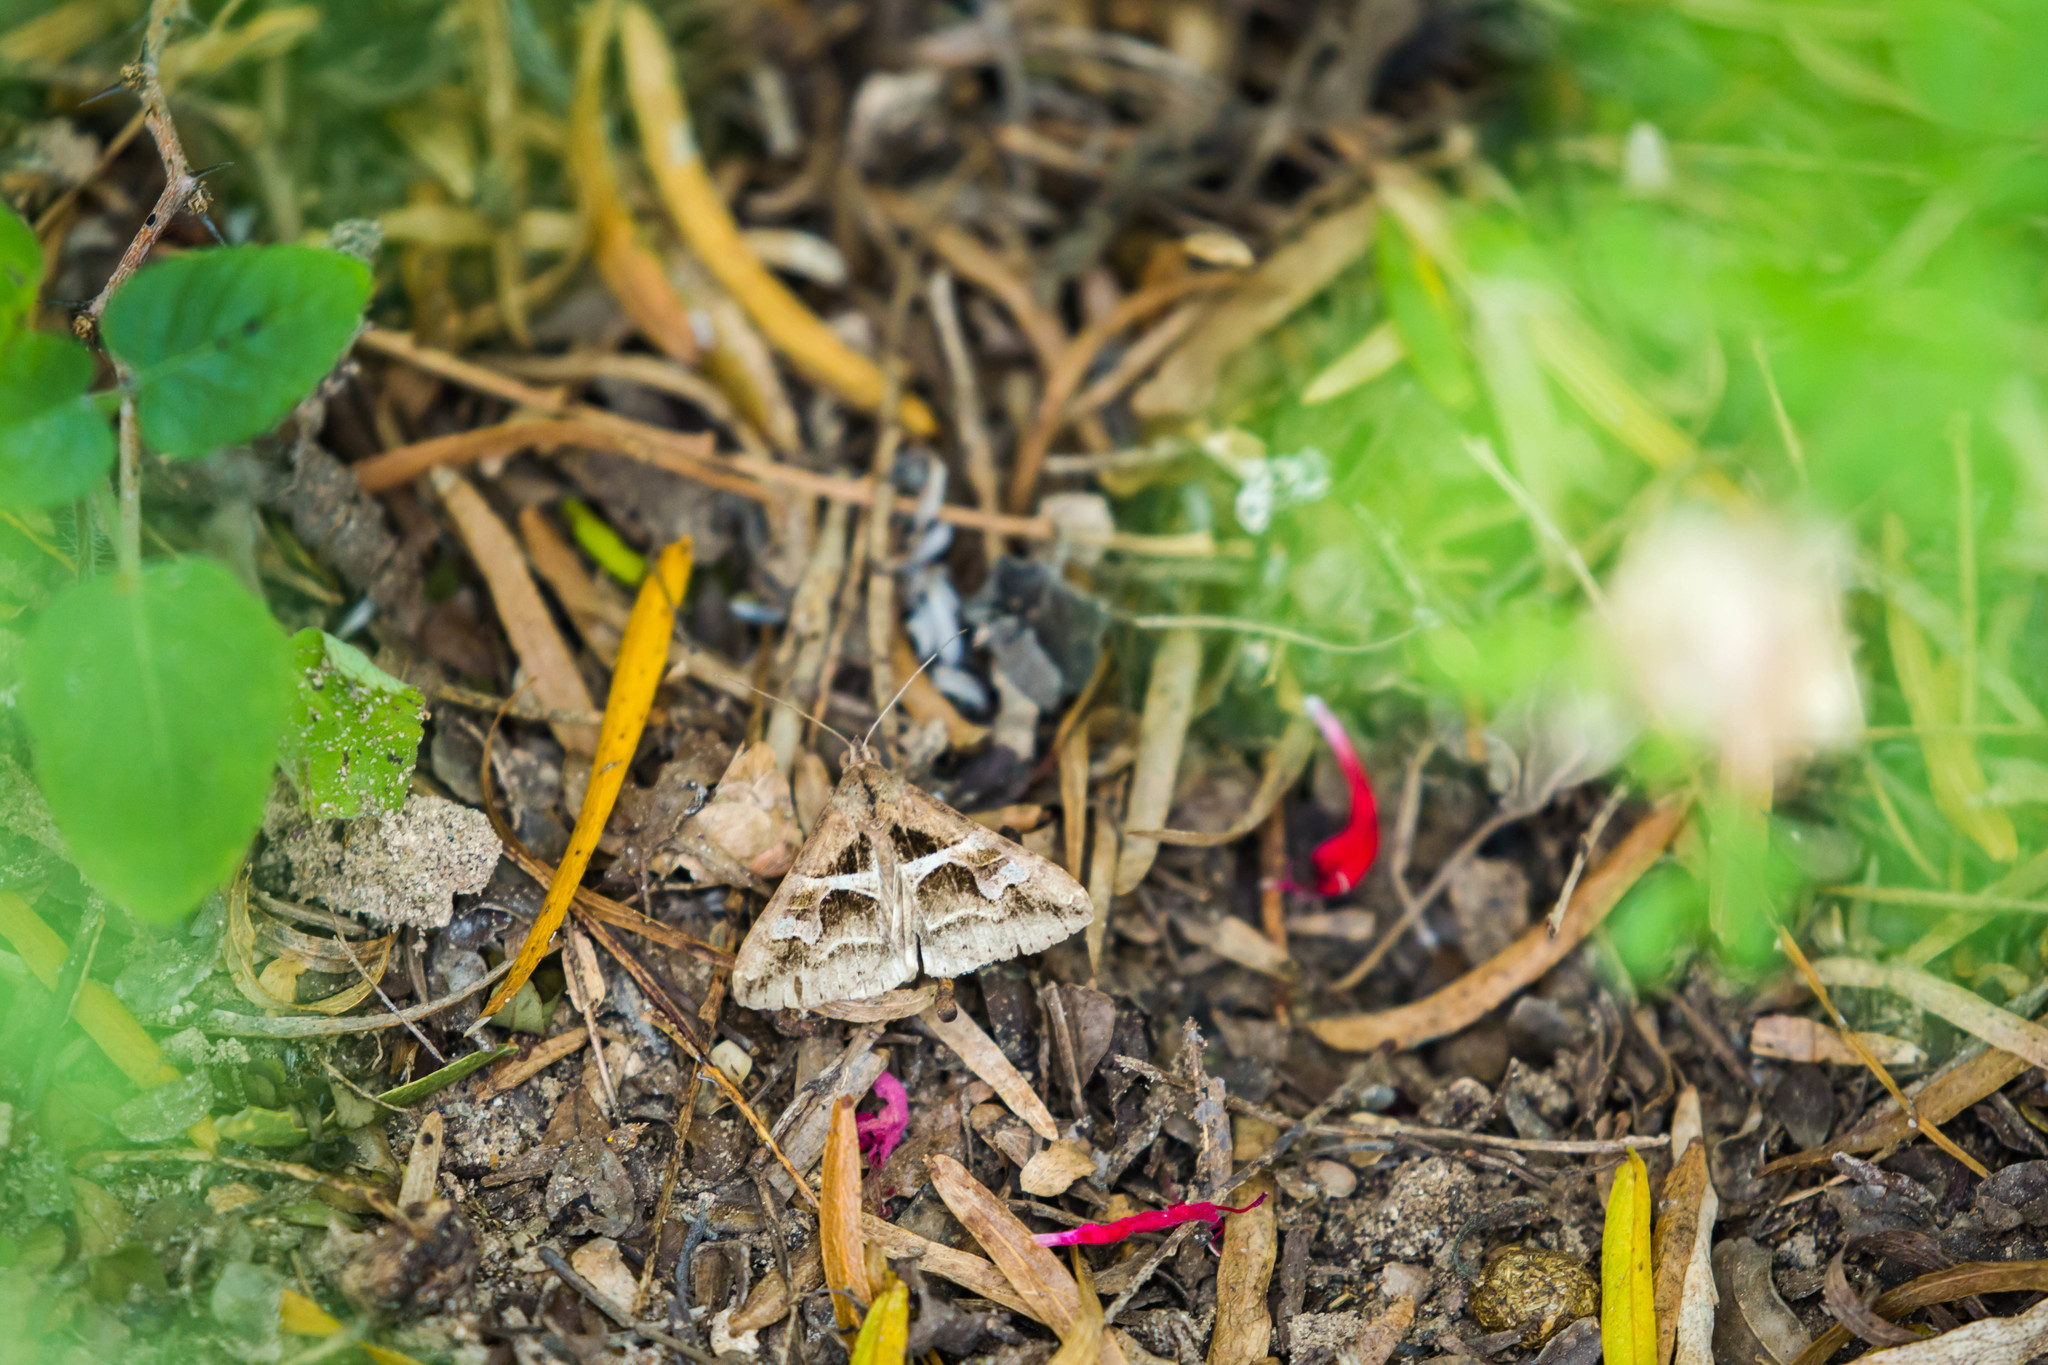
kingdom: Animalia
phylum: Arthropoda
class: Insecta
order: Lepidoptera
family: Erebidae
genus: Melipotis
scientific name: Melipotis cellaris
